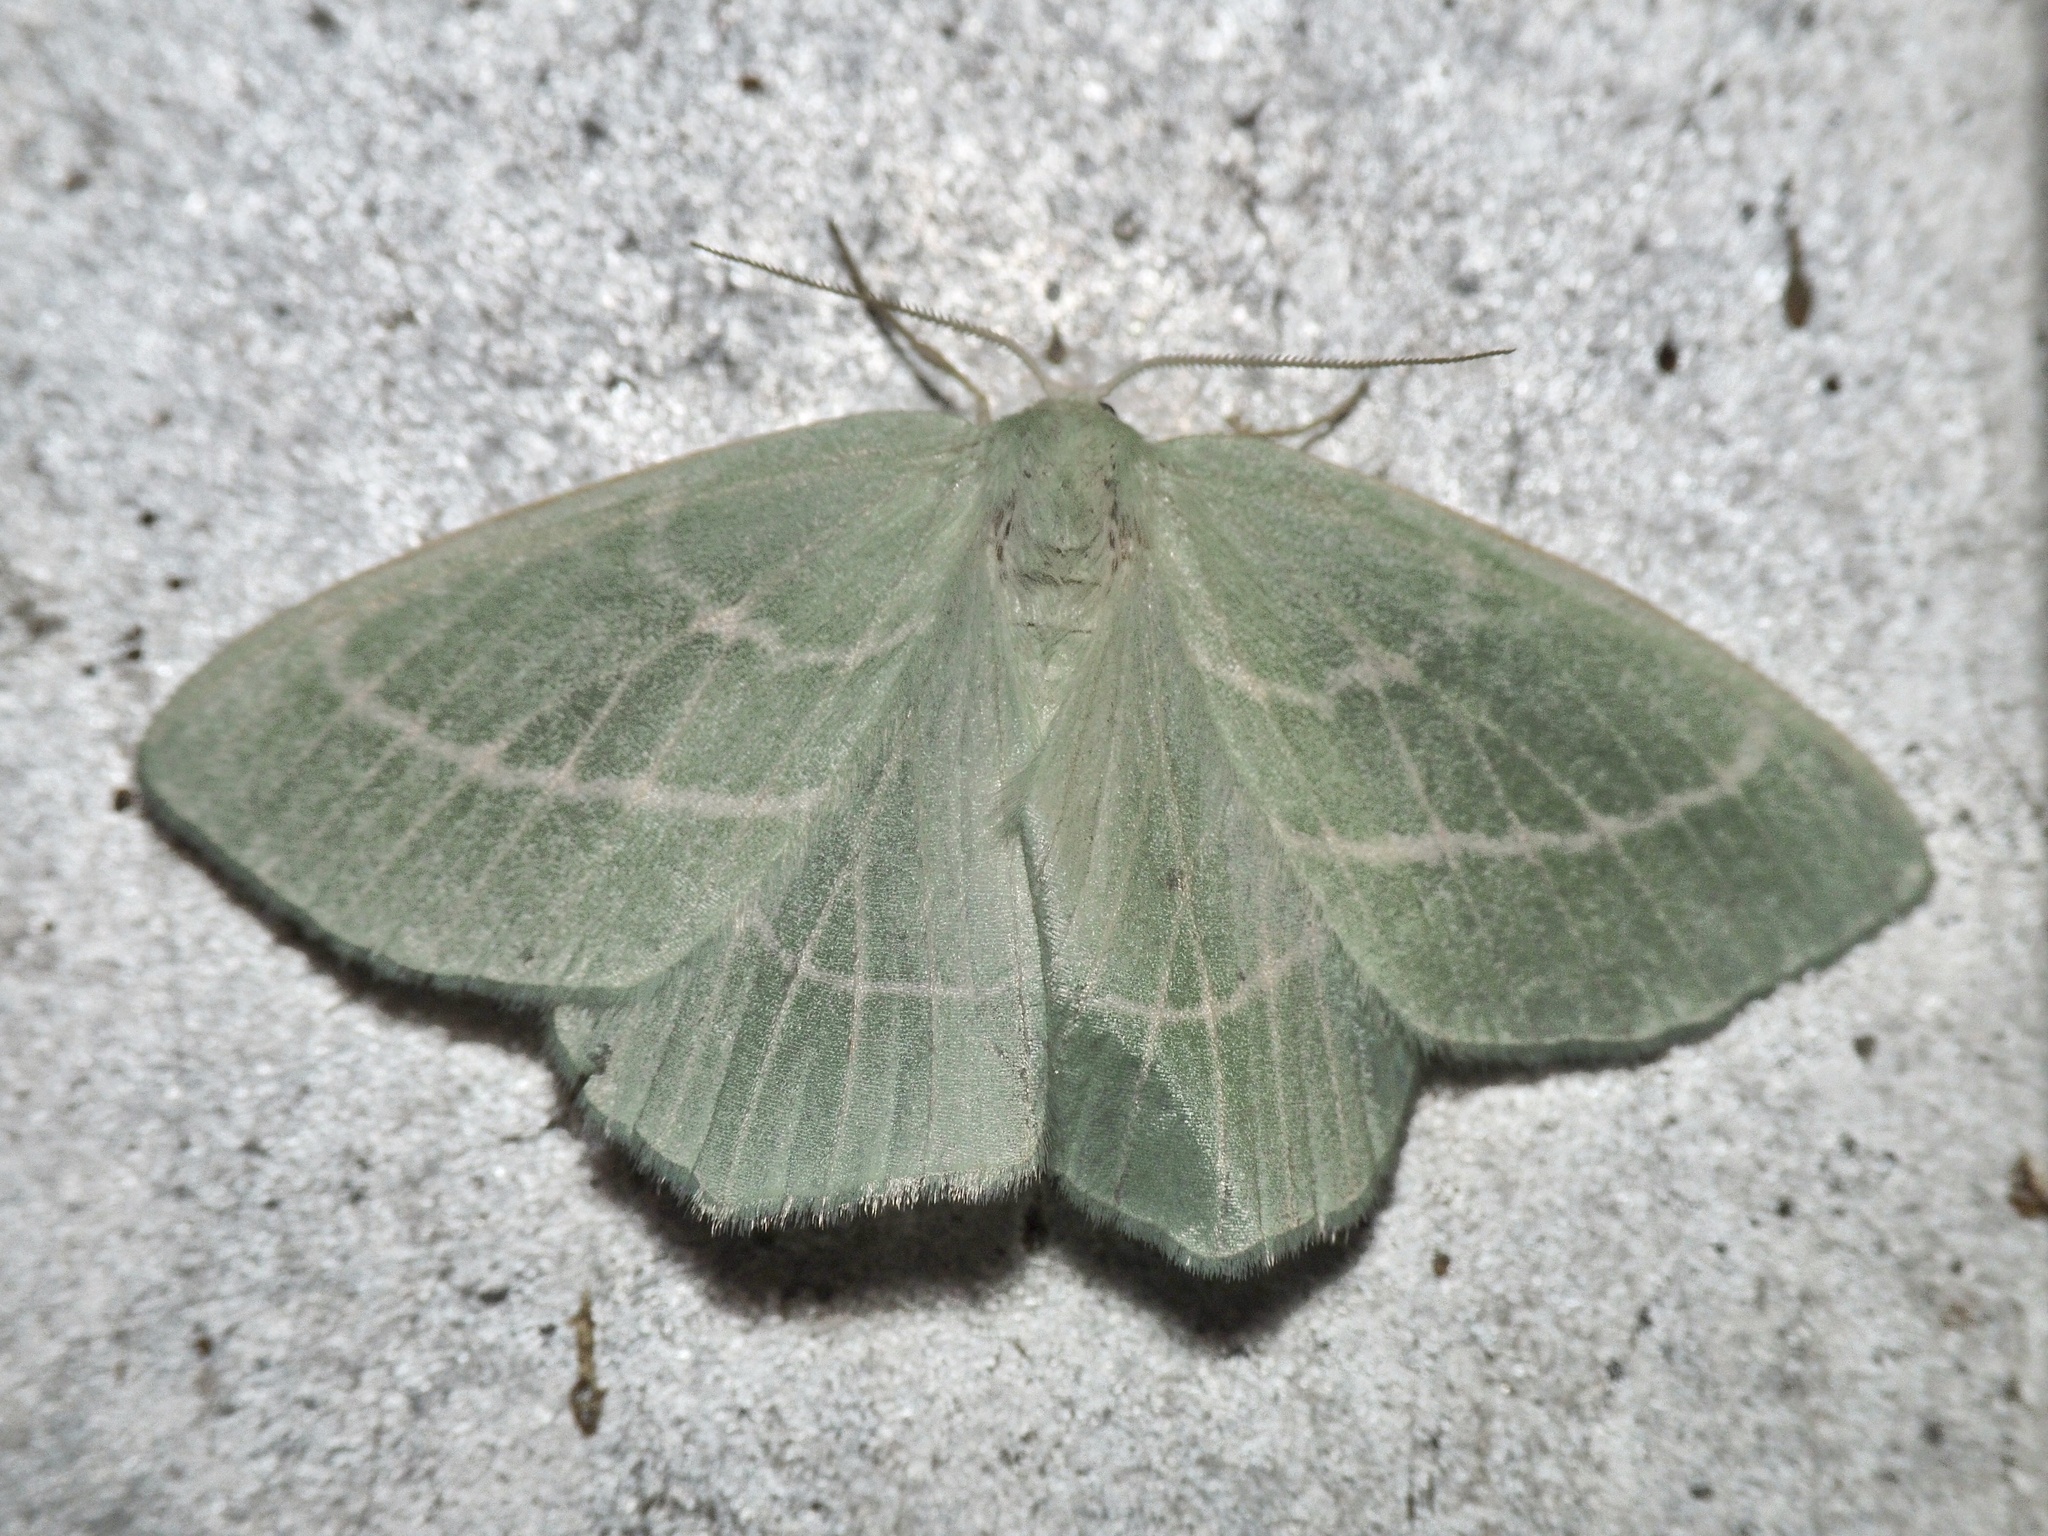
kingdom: Animalia
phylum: Arthropoda
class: Insecta
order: Lepidoptera
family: Geometridae
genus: Hemistola
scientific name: Hemistola chrysoprasaria
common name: Small emerald
